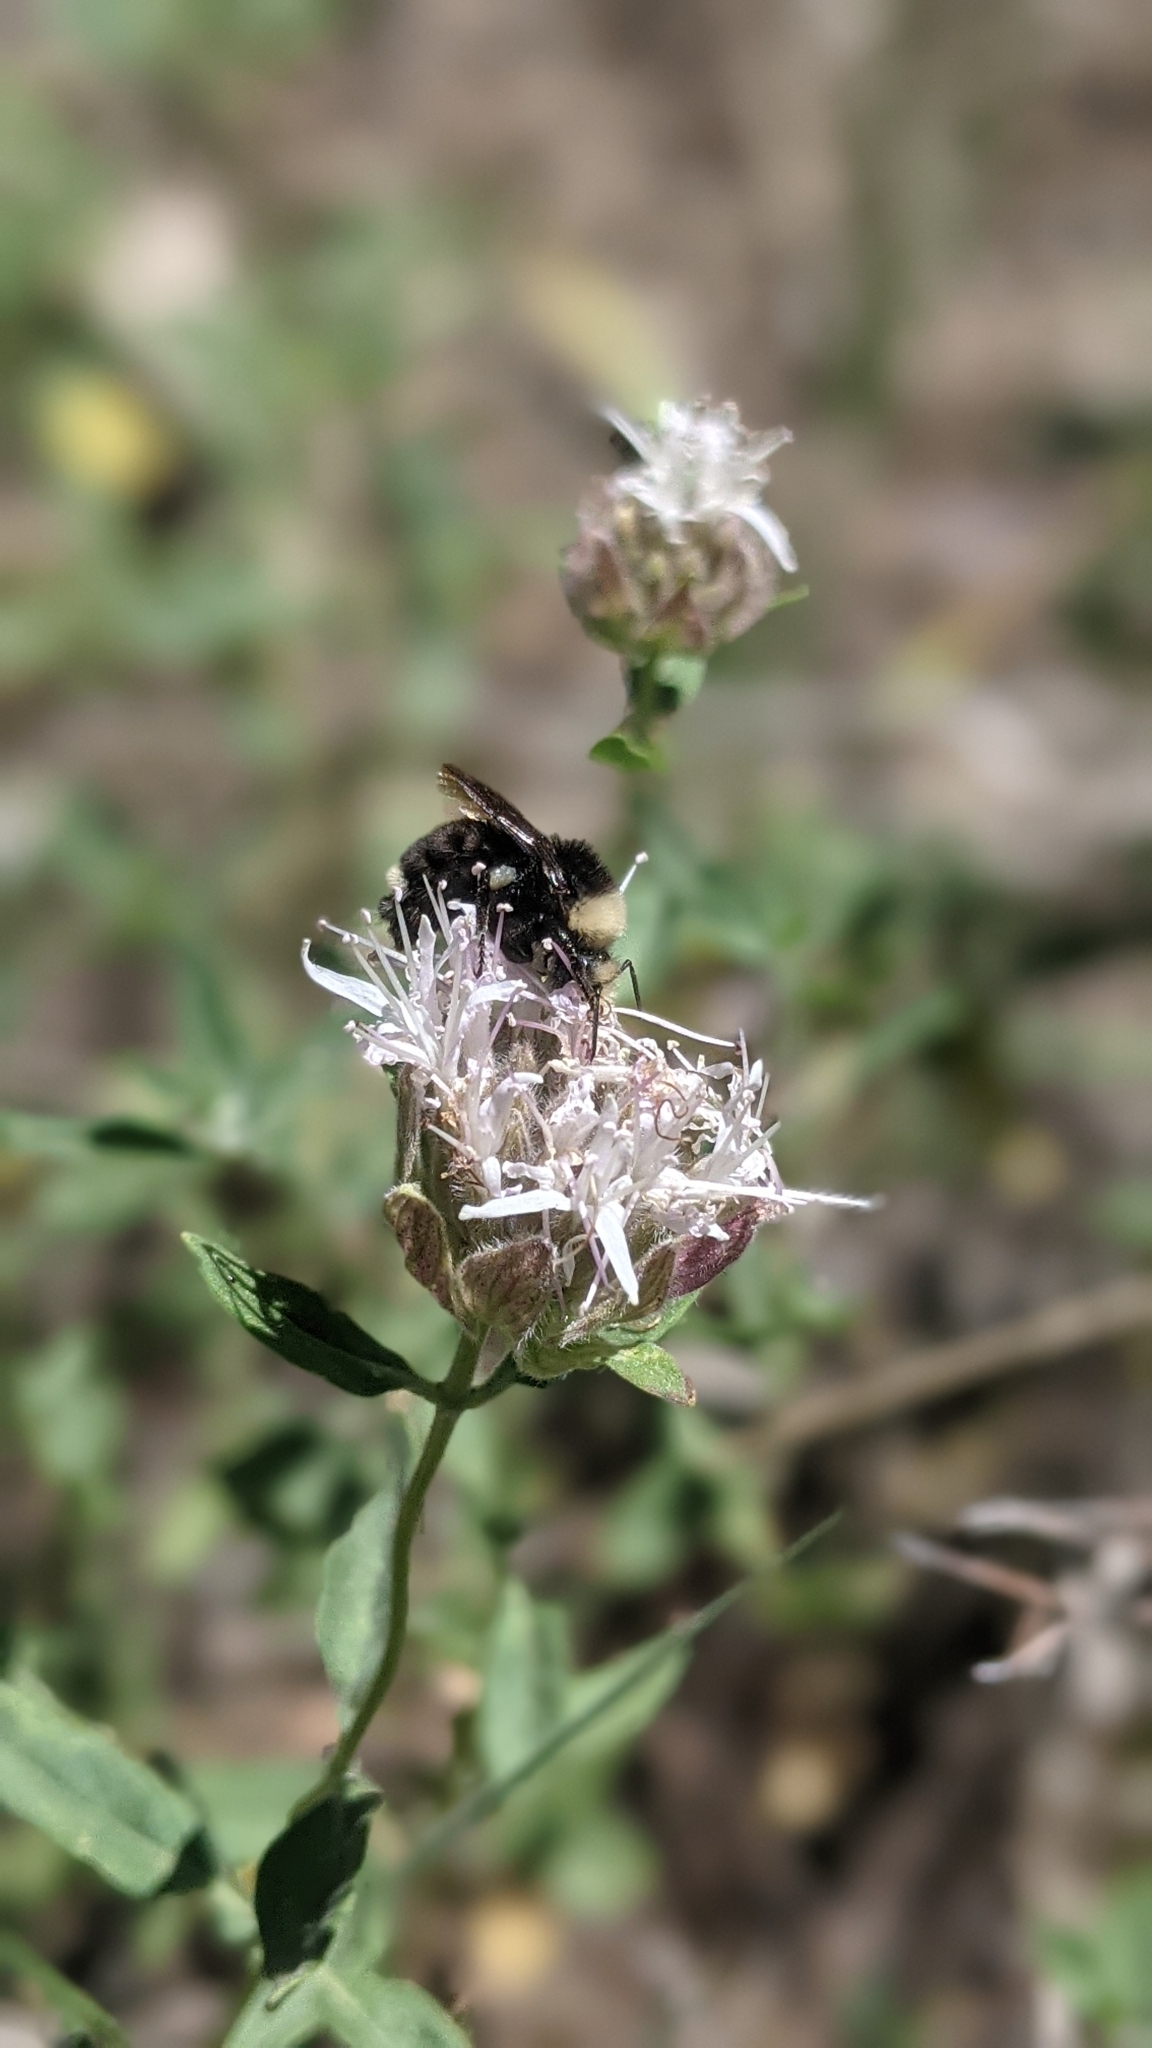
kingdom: Animalia
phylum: Arthropoda
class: Insecta
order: Hymenoptera
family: Apidae
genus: Bombus
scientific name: Bombus vosnesenskii
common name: Vosnesensky bumble bee
